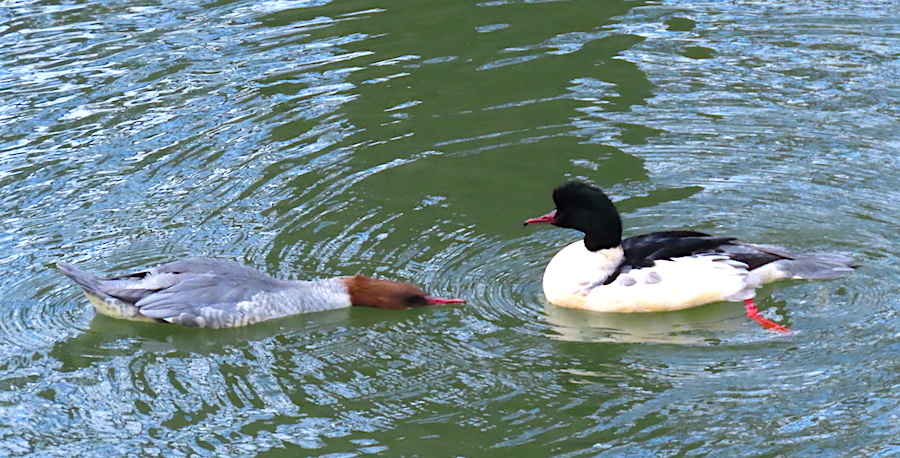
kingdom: Animalia
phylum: Chordata
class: Aves
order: Anseriformes
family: Anatidae
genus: Mergus
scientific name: Mergus merganser
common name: Common merganser
